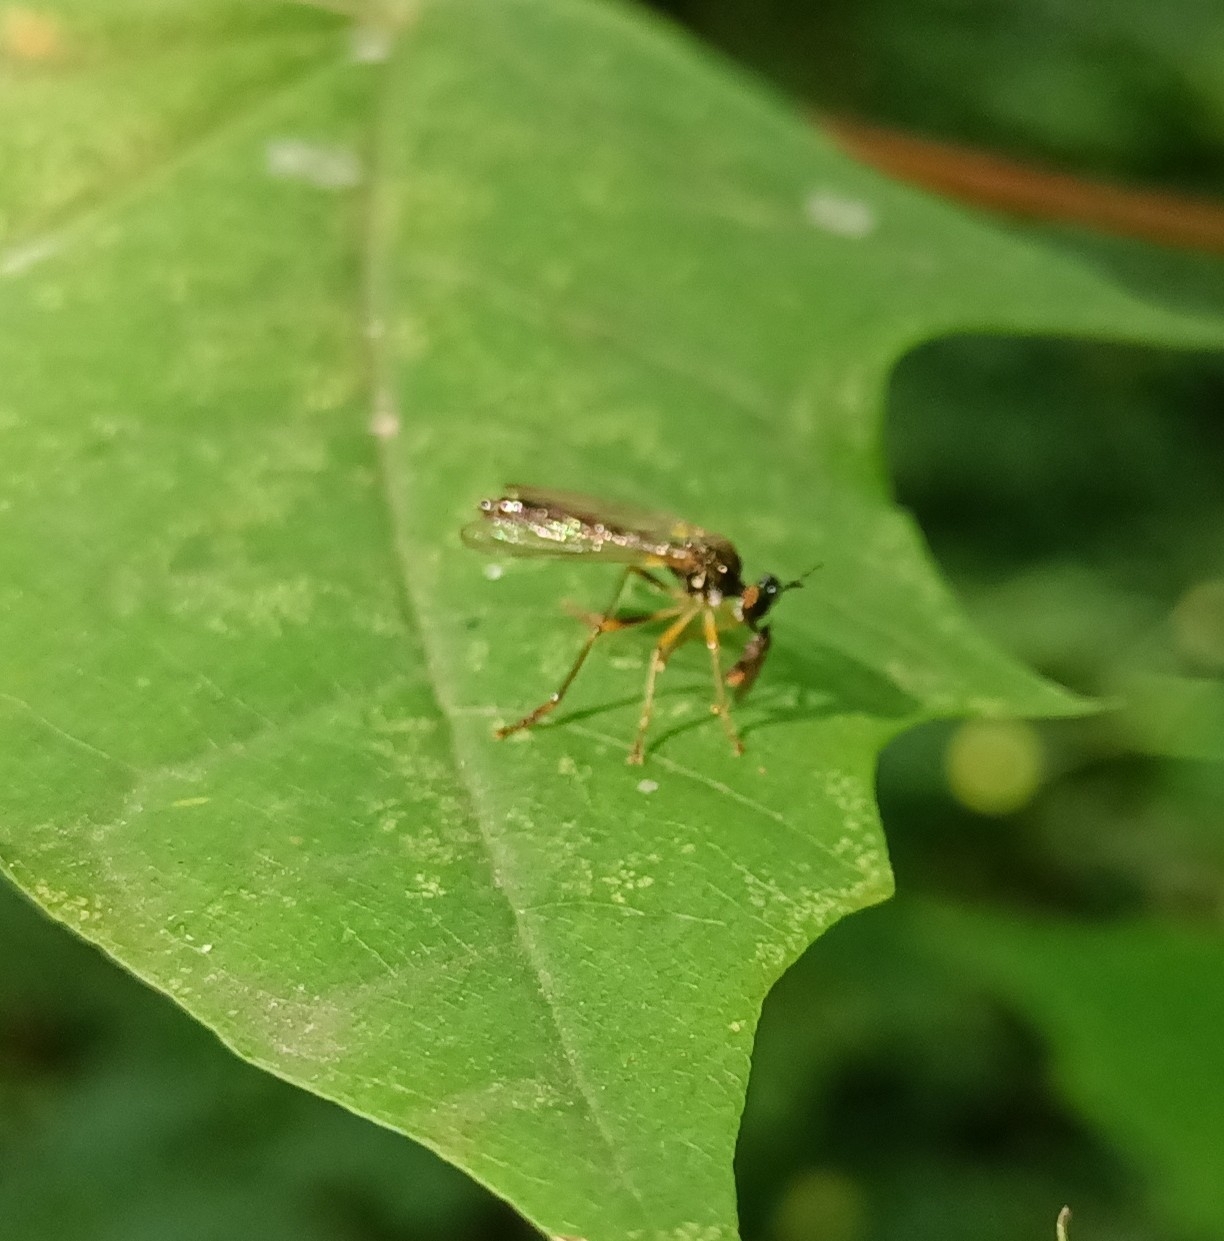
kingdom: Animalia
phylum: Arthropoda
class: Insecta
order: Diptera
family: Asilidae
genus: Dioctria
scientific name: Dioctria linearis
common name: Small yellow-legged robberfly
